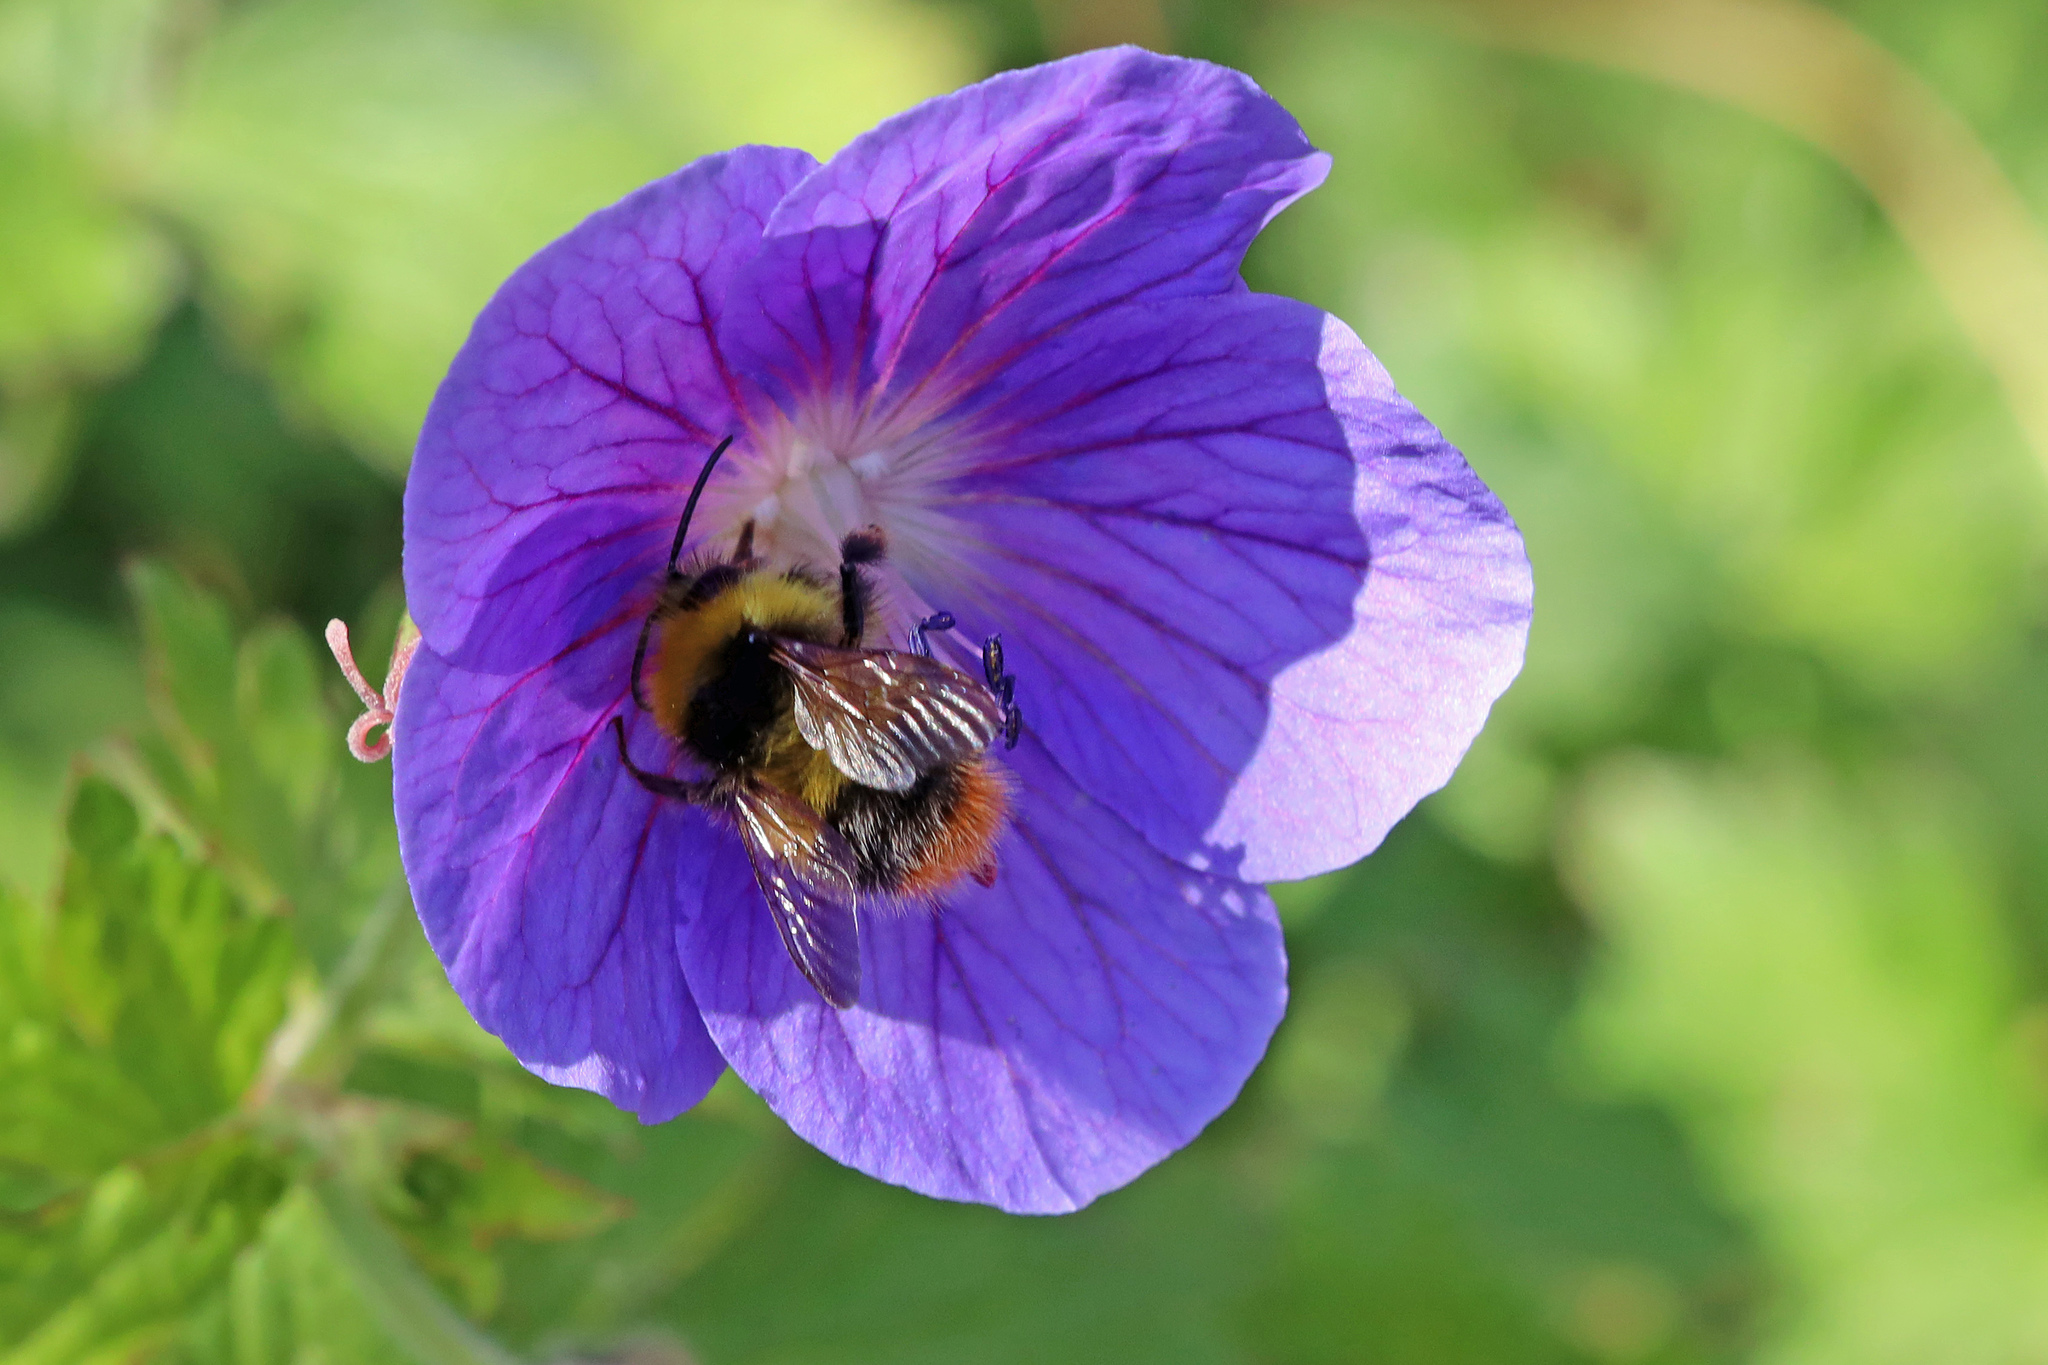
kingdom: Animalia
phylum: Arthropoda
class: Insecta
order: Hymenoptera
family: Apidae
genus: Bombus
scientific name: Bombus pratorum
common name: Early humble-bee
